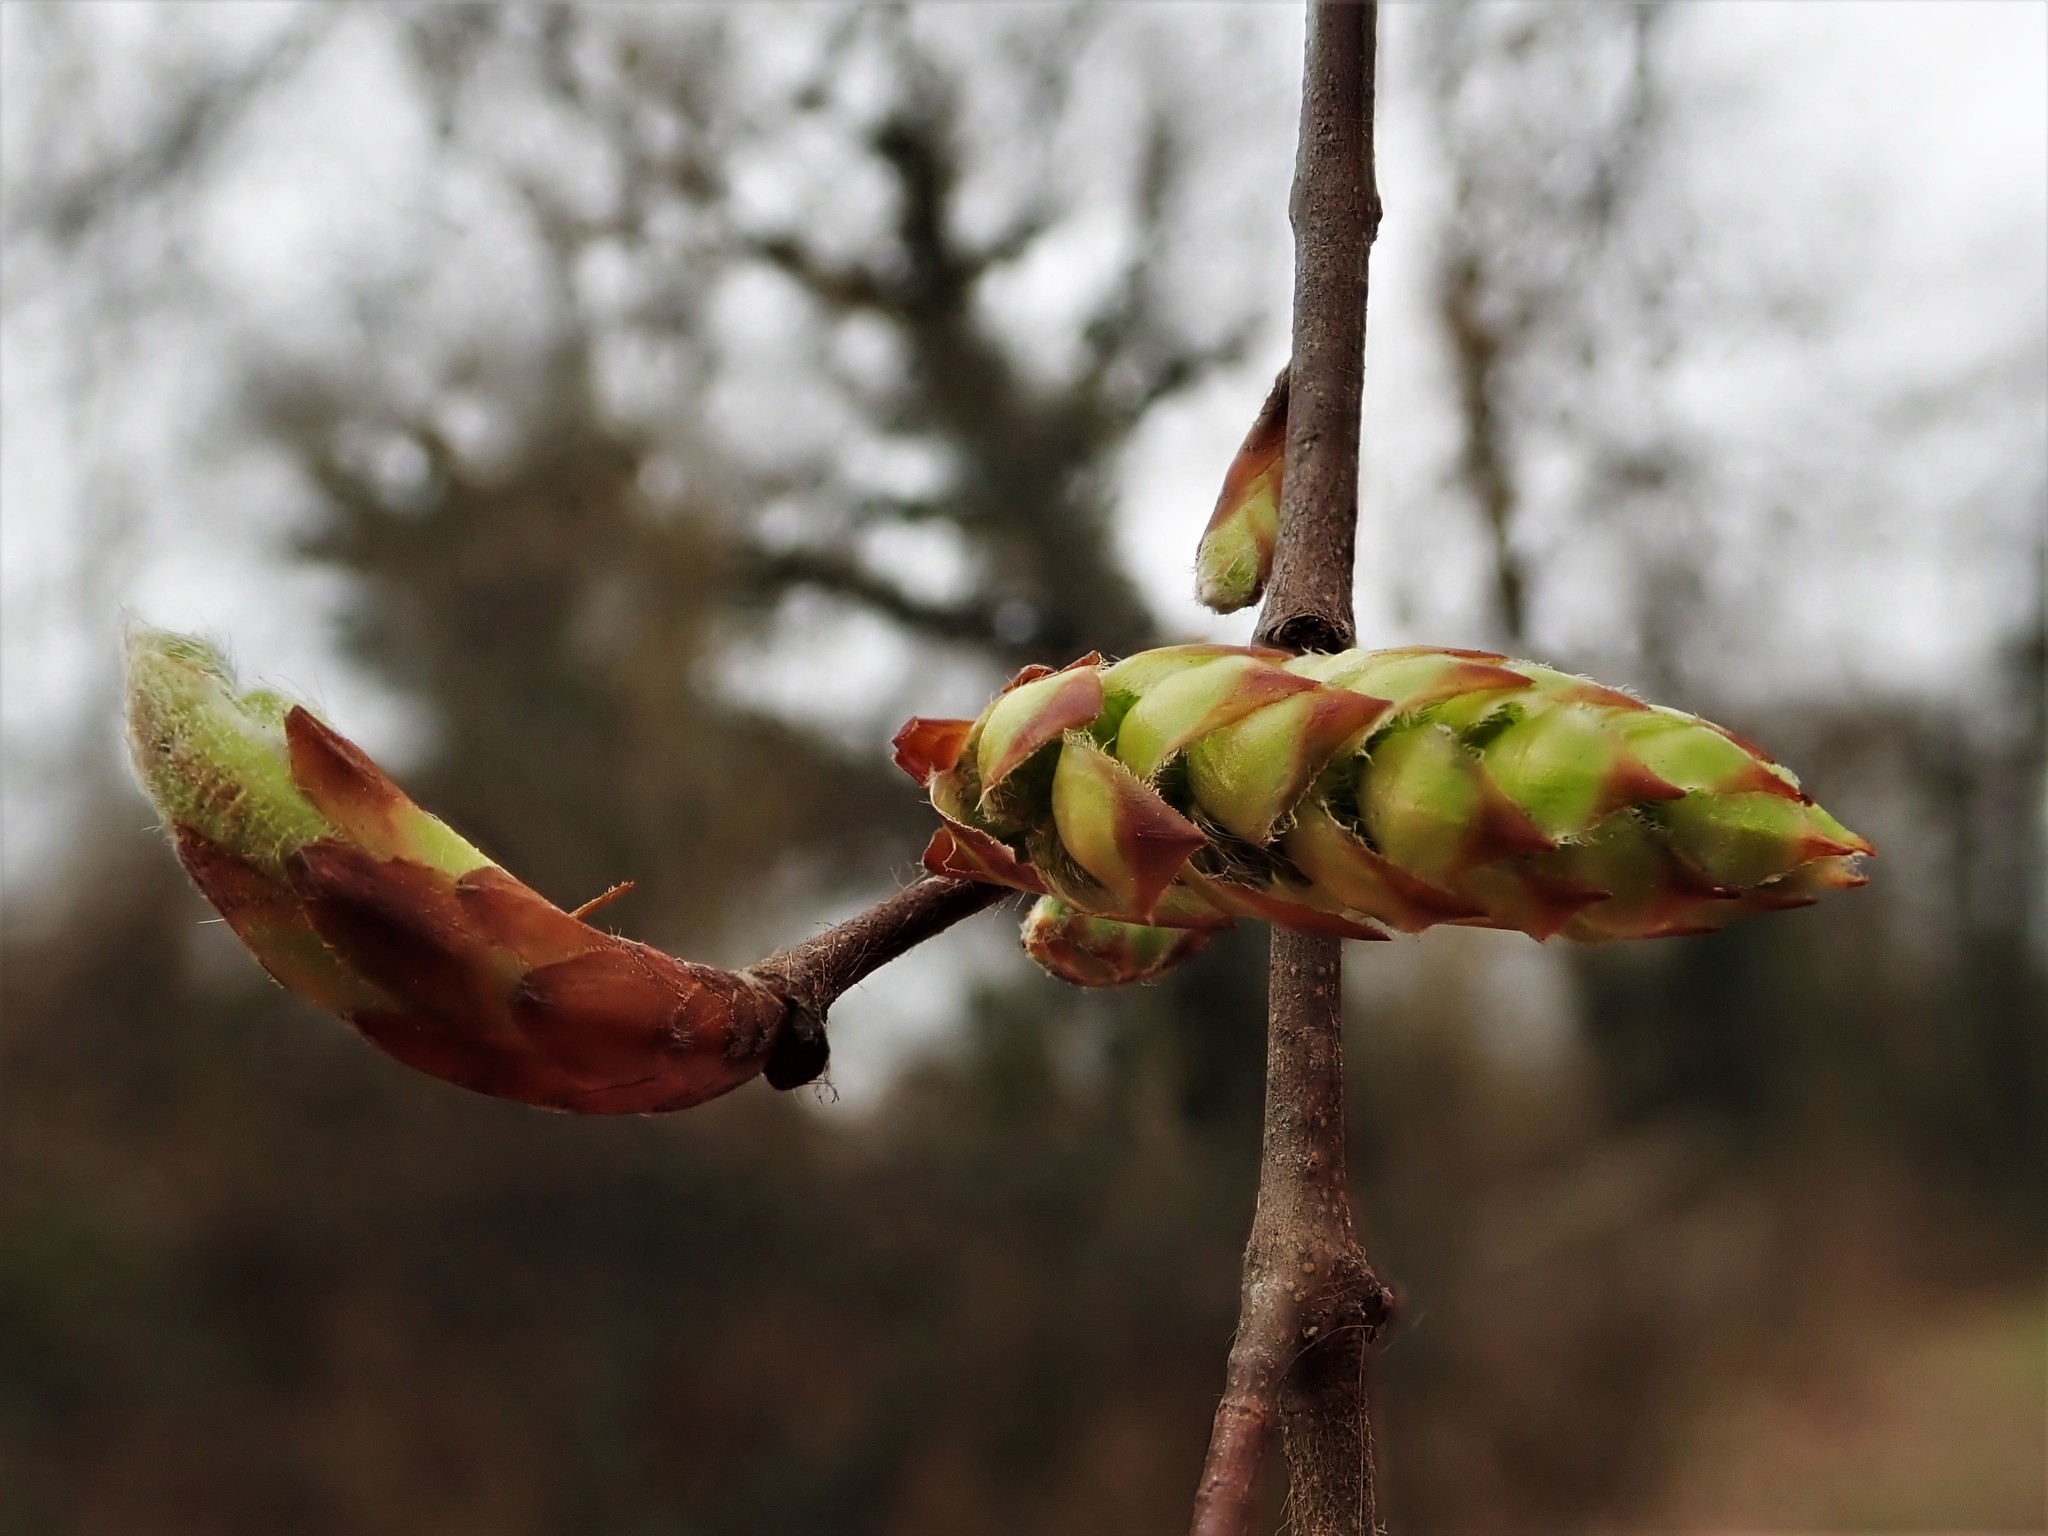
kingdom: Plantae
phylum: Tracheophyta
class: Magnoliopsida
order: Fagales
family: Betulaceae
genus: Carpinus
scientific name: Carpinus betulus
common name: Hornbeam
